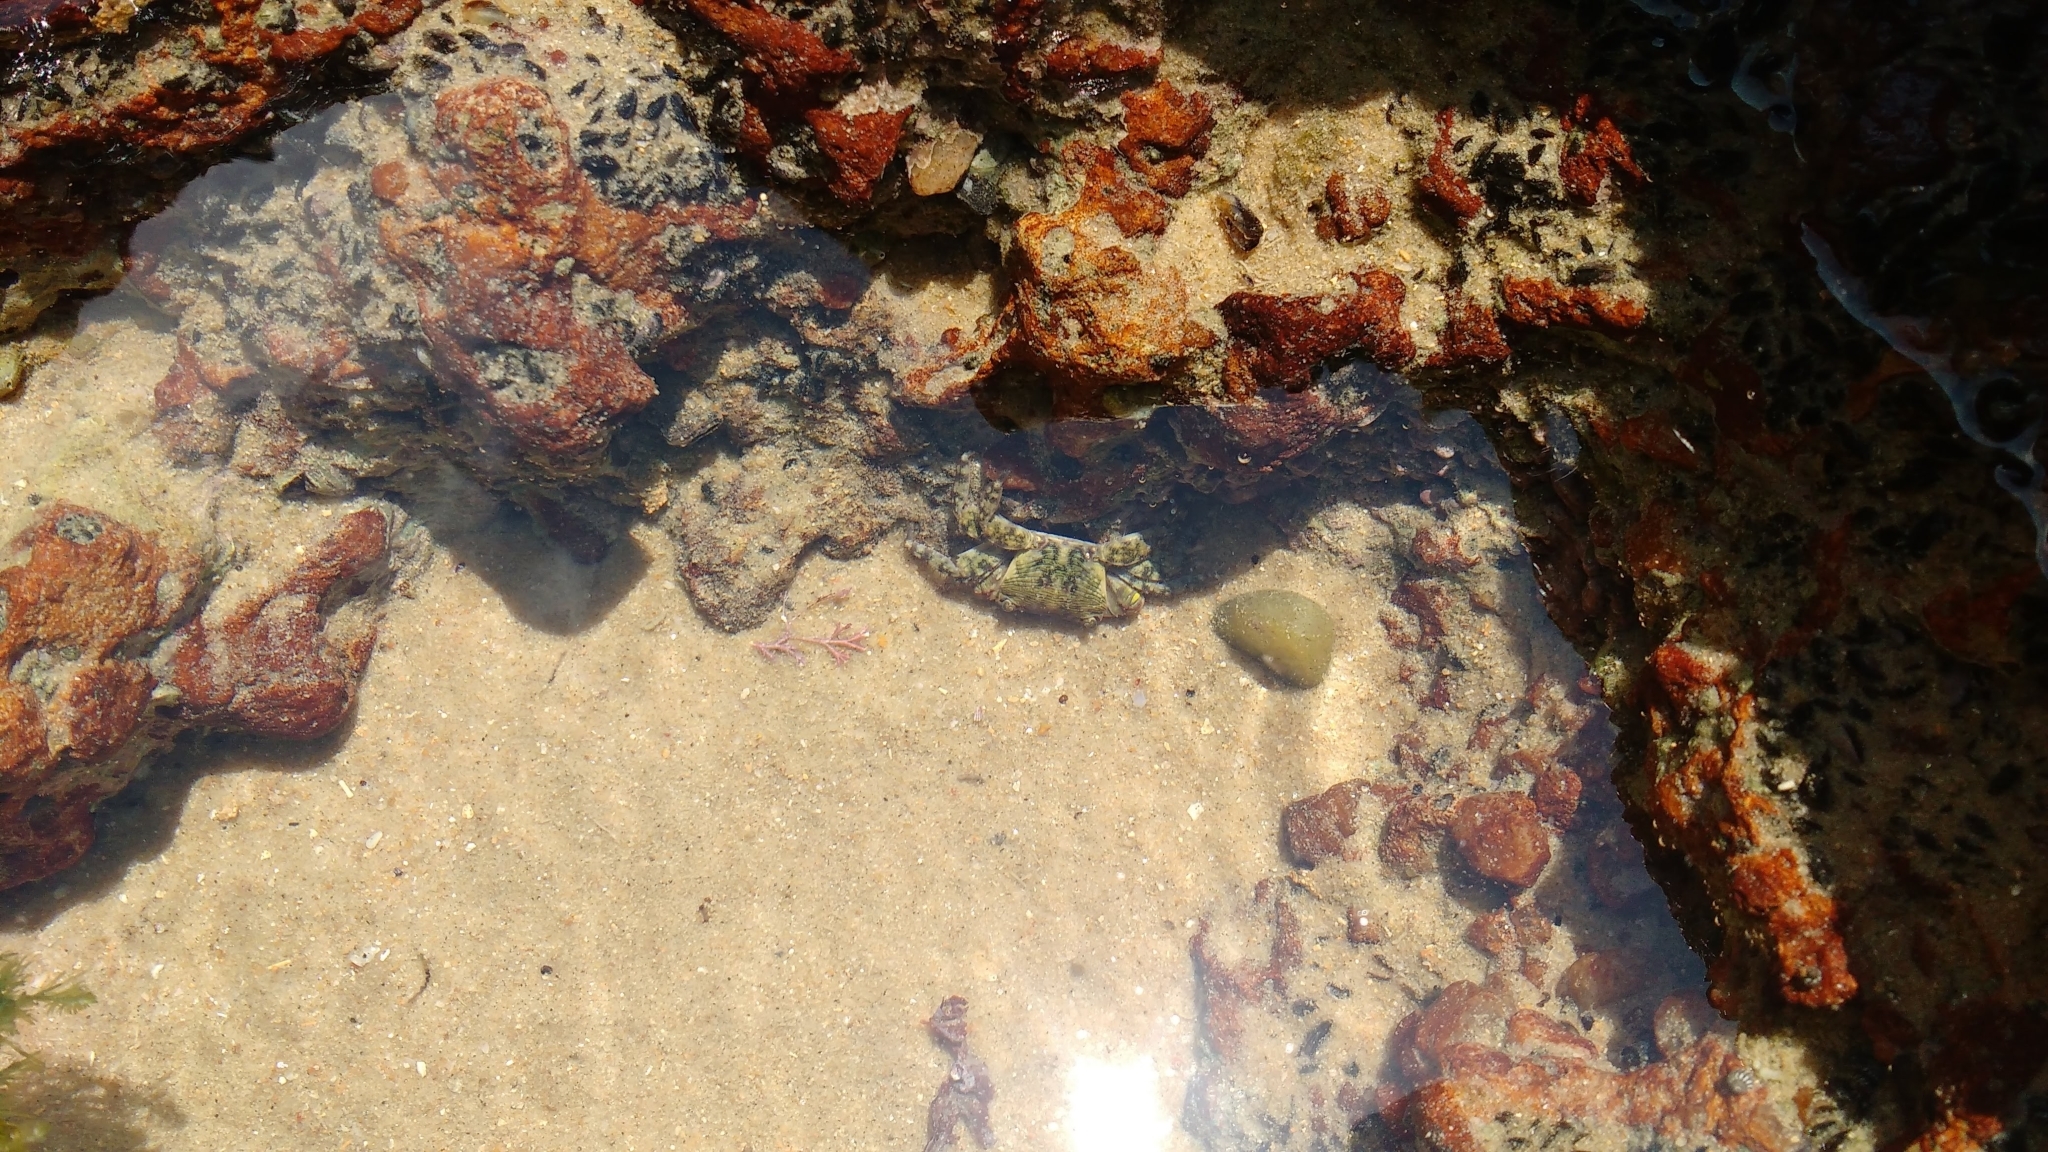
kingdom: Animalia
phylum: Arthropoda
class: Malacostraca
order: Decapoda
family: Grapsidae
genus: Pachygrapsus
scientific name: Pachygrapsus transversus
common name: Mottled shore crab
